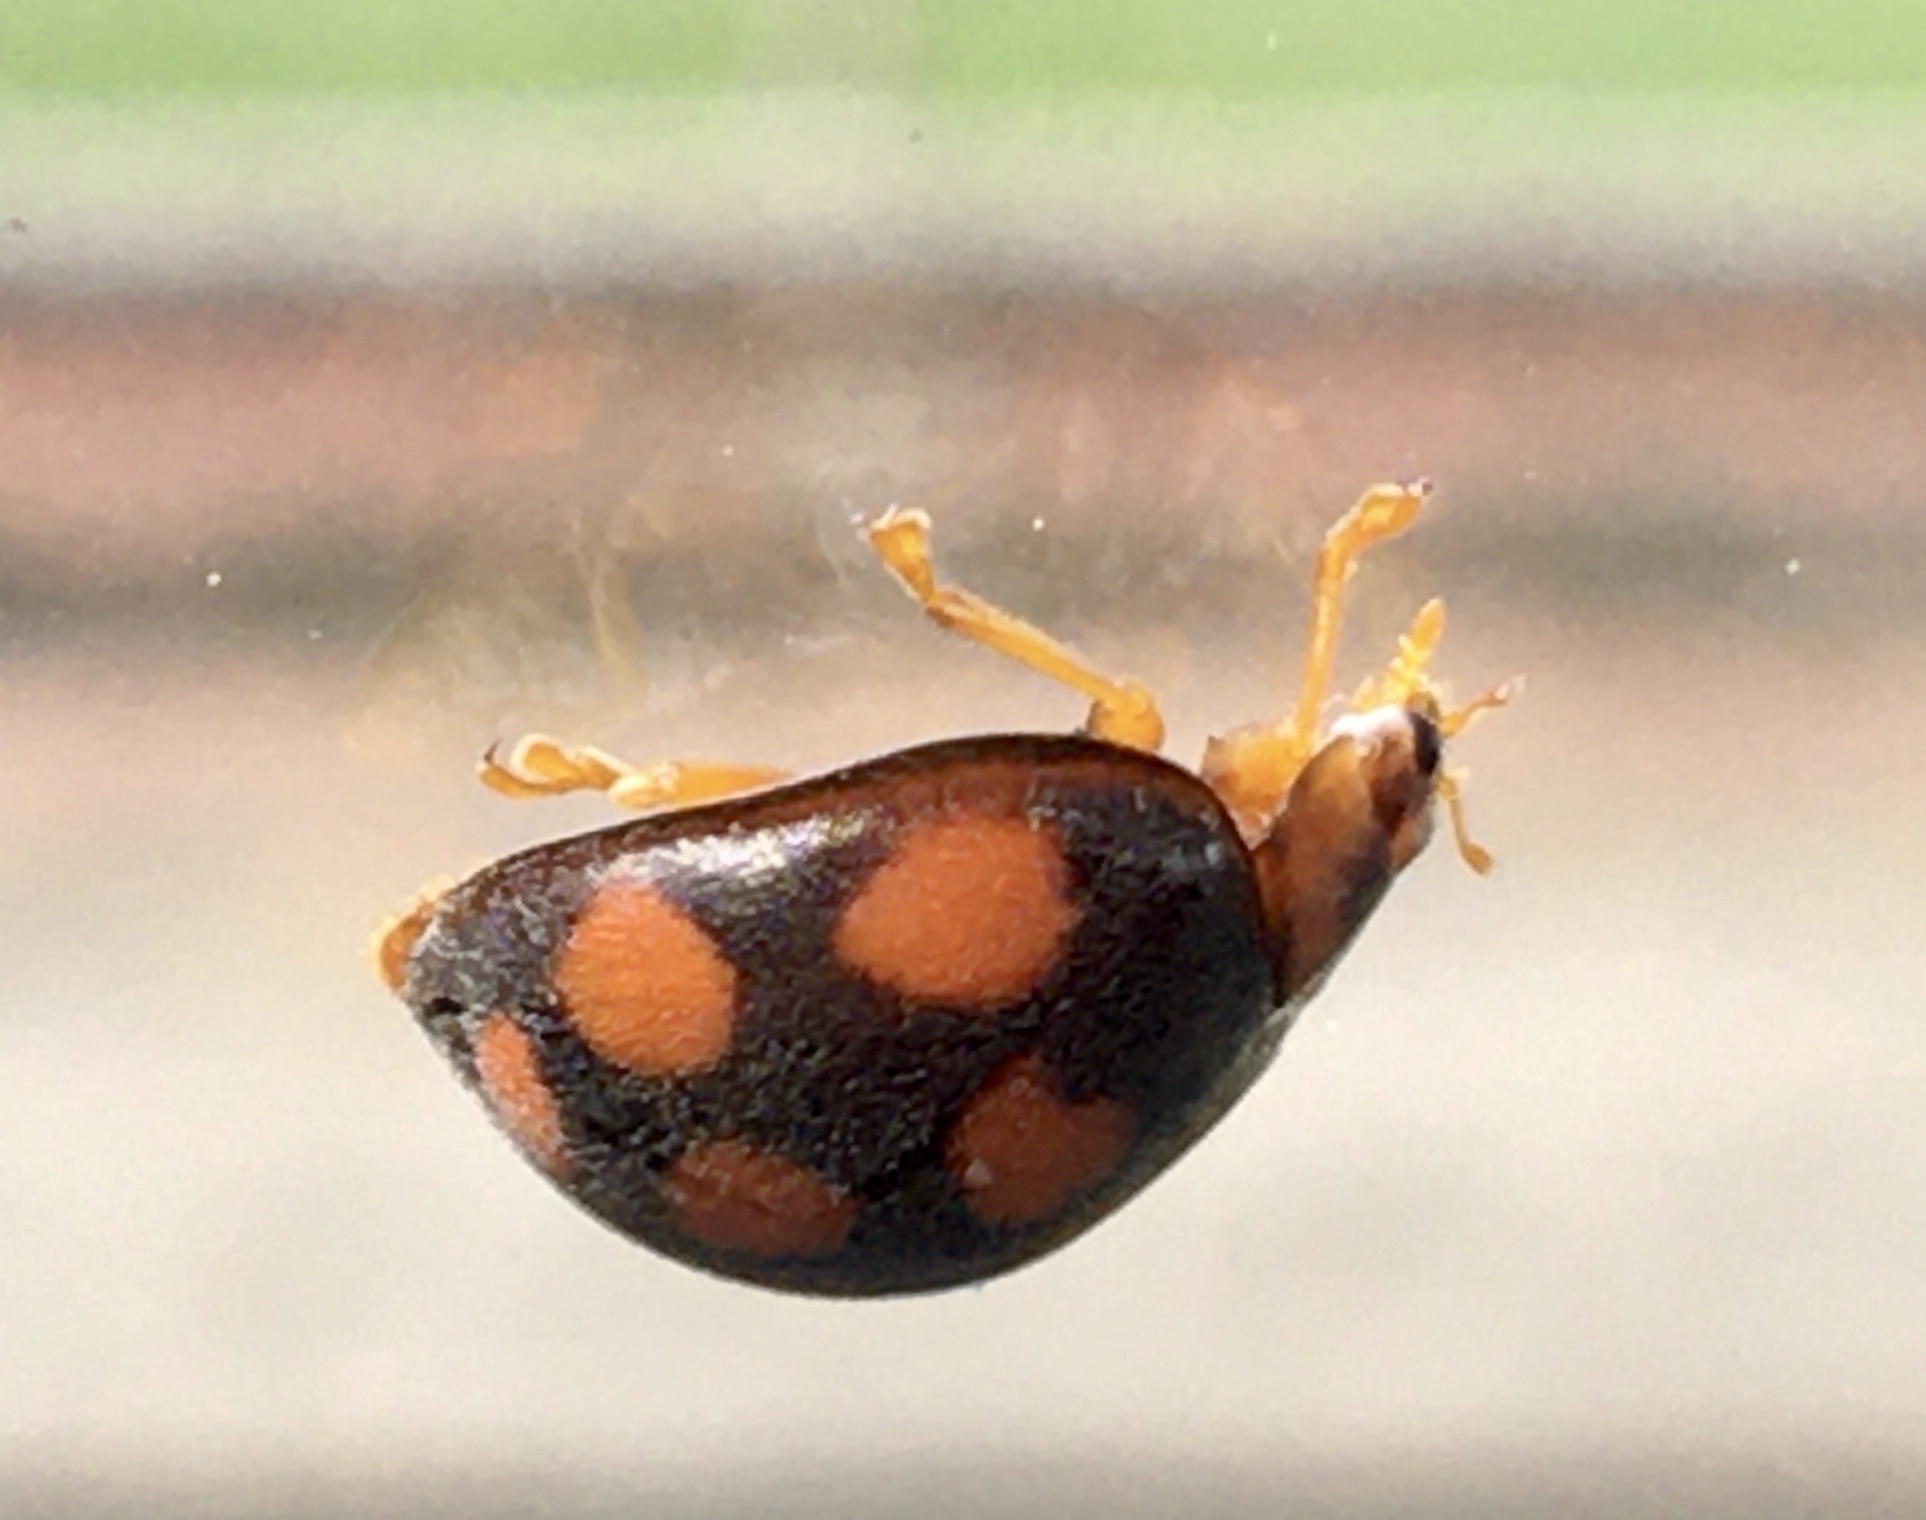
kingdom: Animalia
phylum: Arthropoda
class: Insecta
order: Coleoptera
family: Coccinellidae
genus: Epilachna
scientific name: Epilachna
